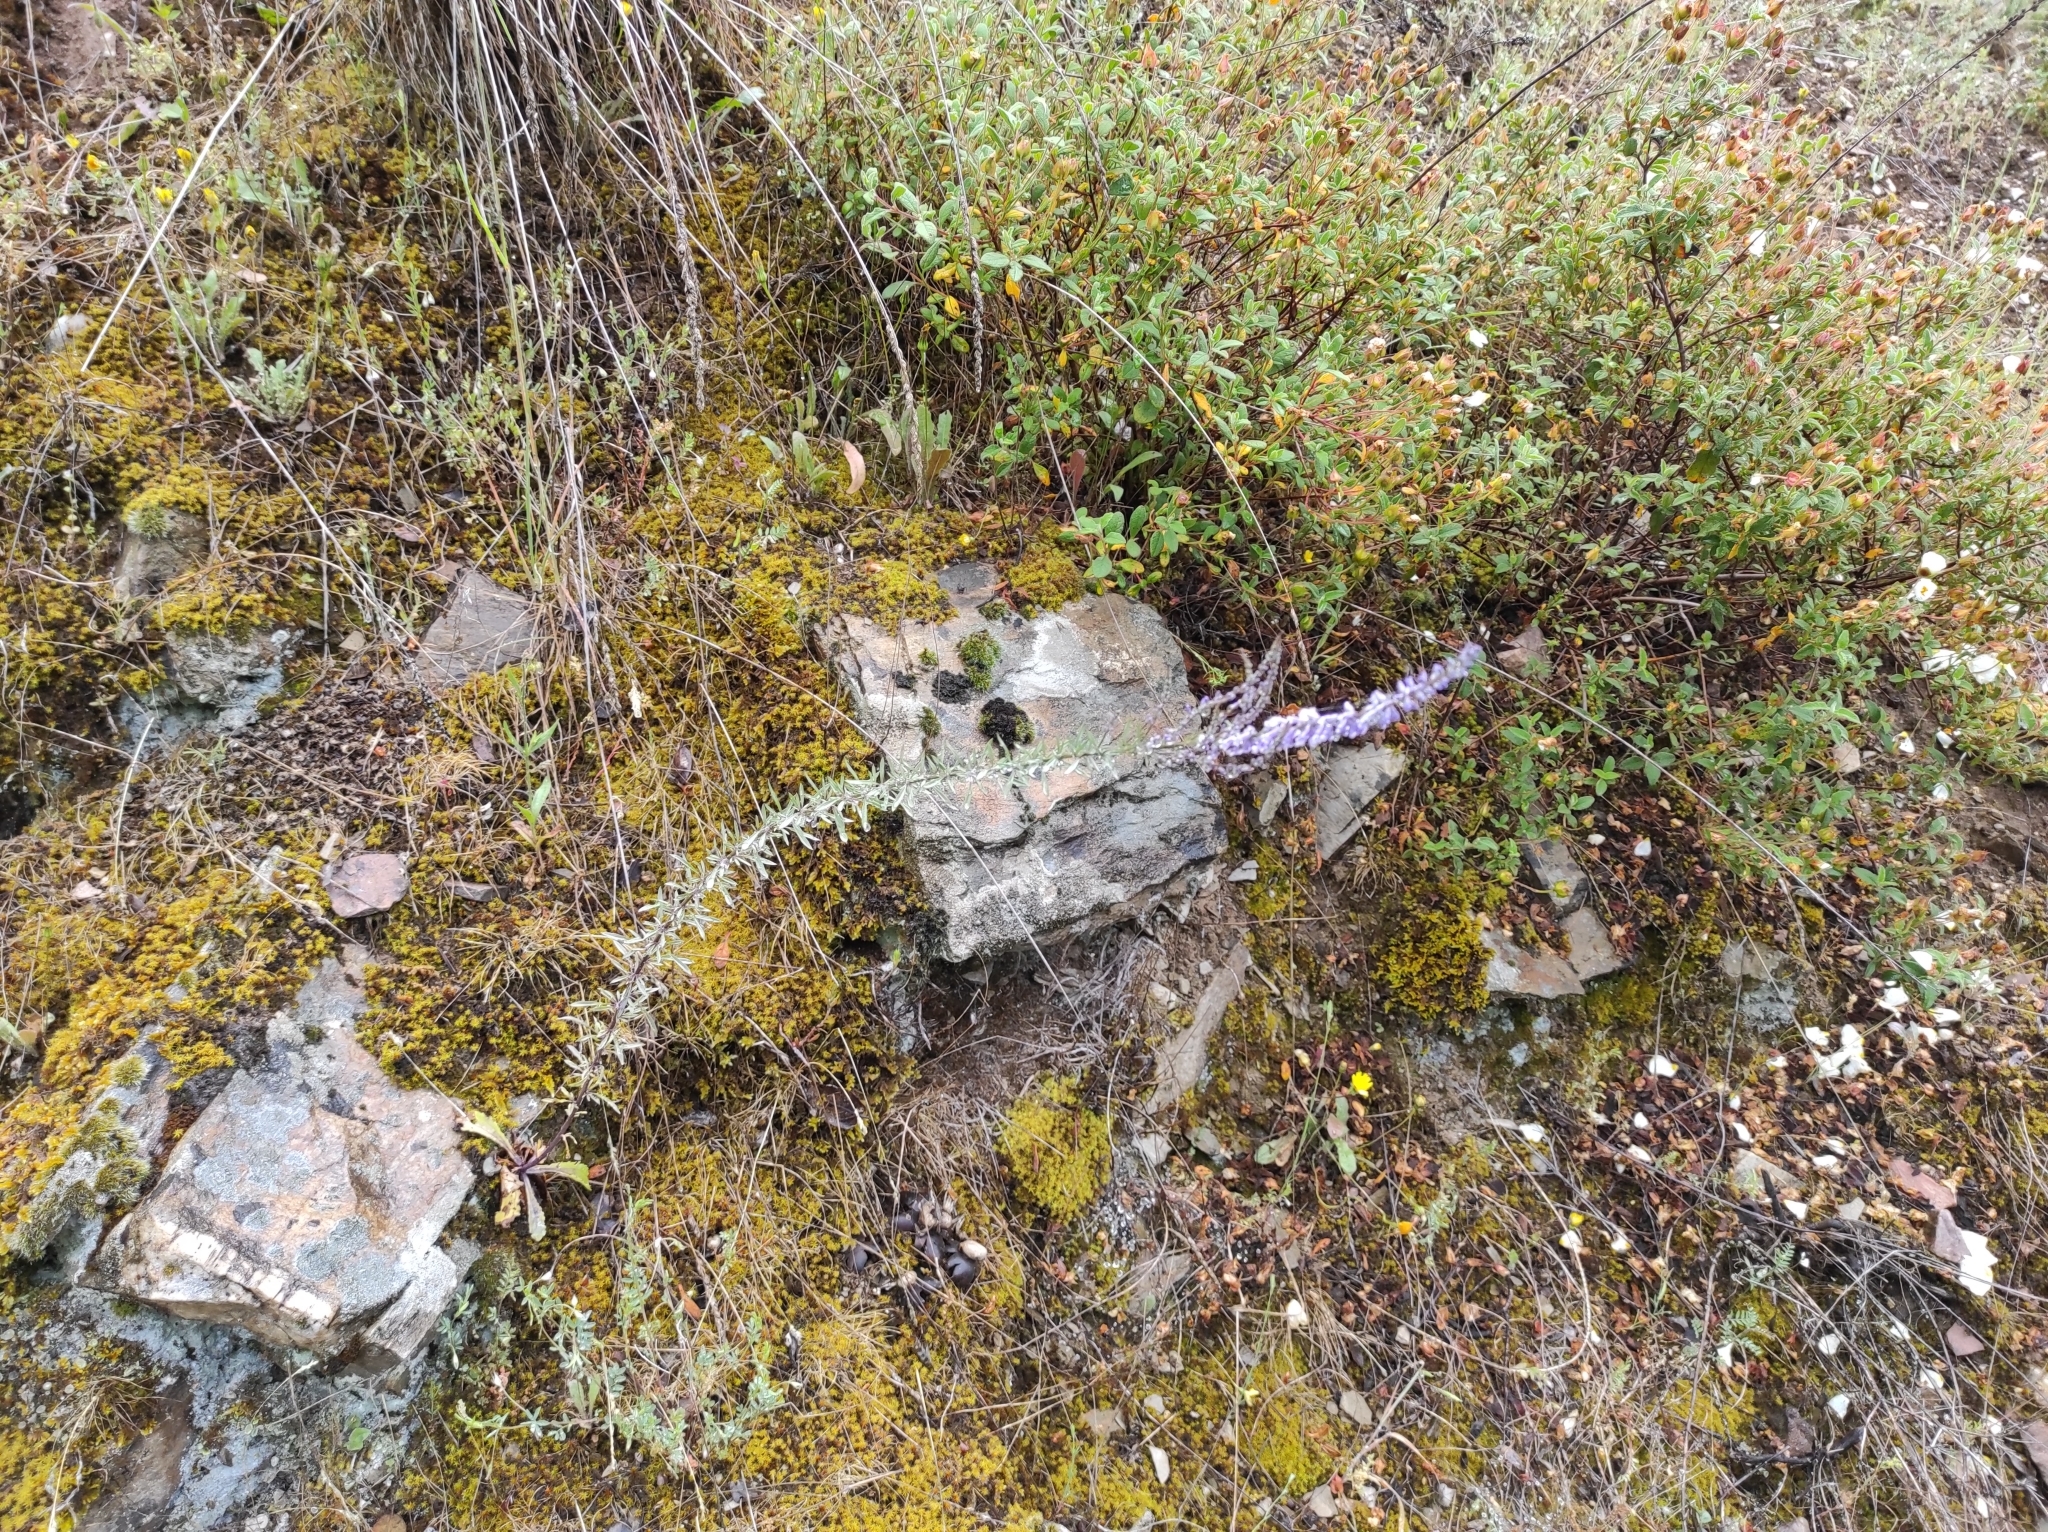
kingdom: Plantae
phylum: Tracheophyta
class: Magnoliopsida
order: Lamiales
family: Plantaginaceae
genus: Anarrhinum
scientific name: Anarrhinum bellidifolium
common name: Daisy-leaved toadflax
